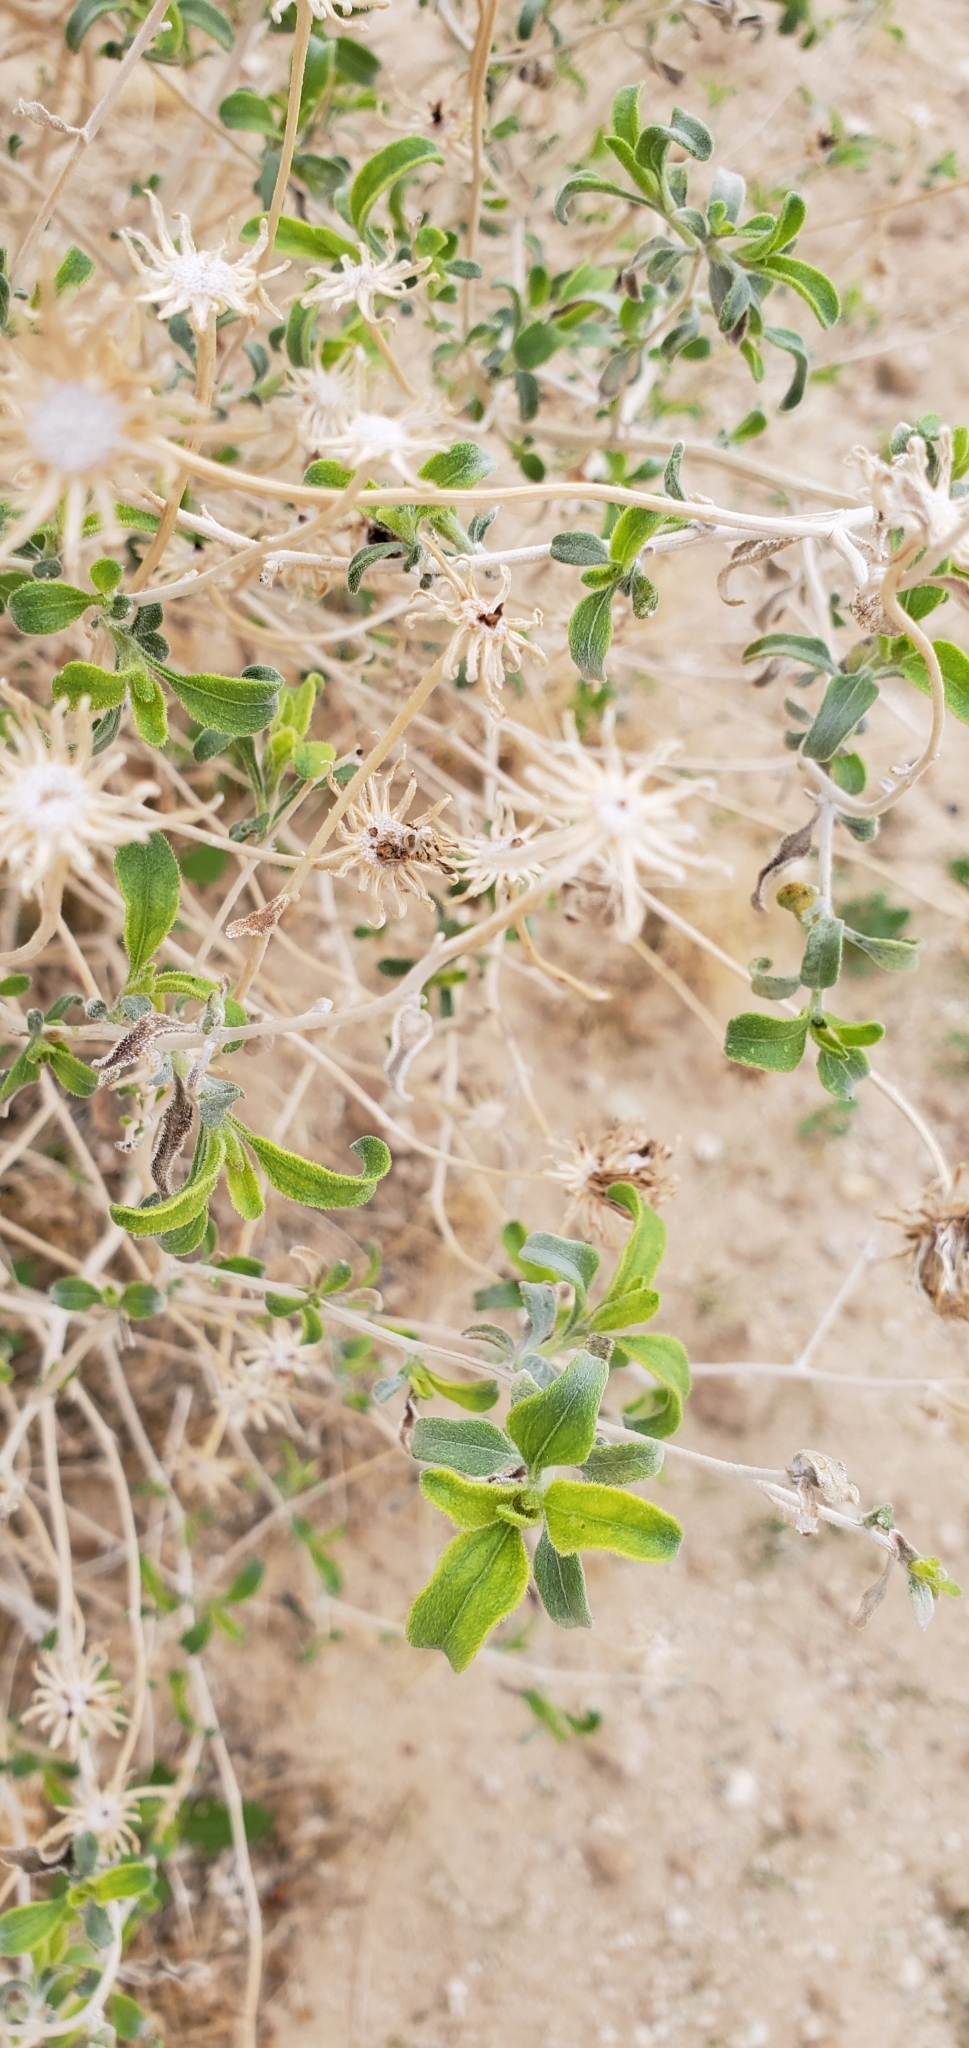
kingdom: Plantae
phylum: Tracheophyta
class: Magnoliopsida
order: Asterales
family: Asteraceae
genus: Encelia
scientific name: Encelia frutescens
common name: Bush encelia
